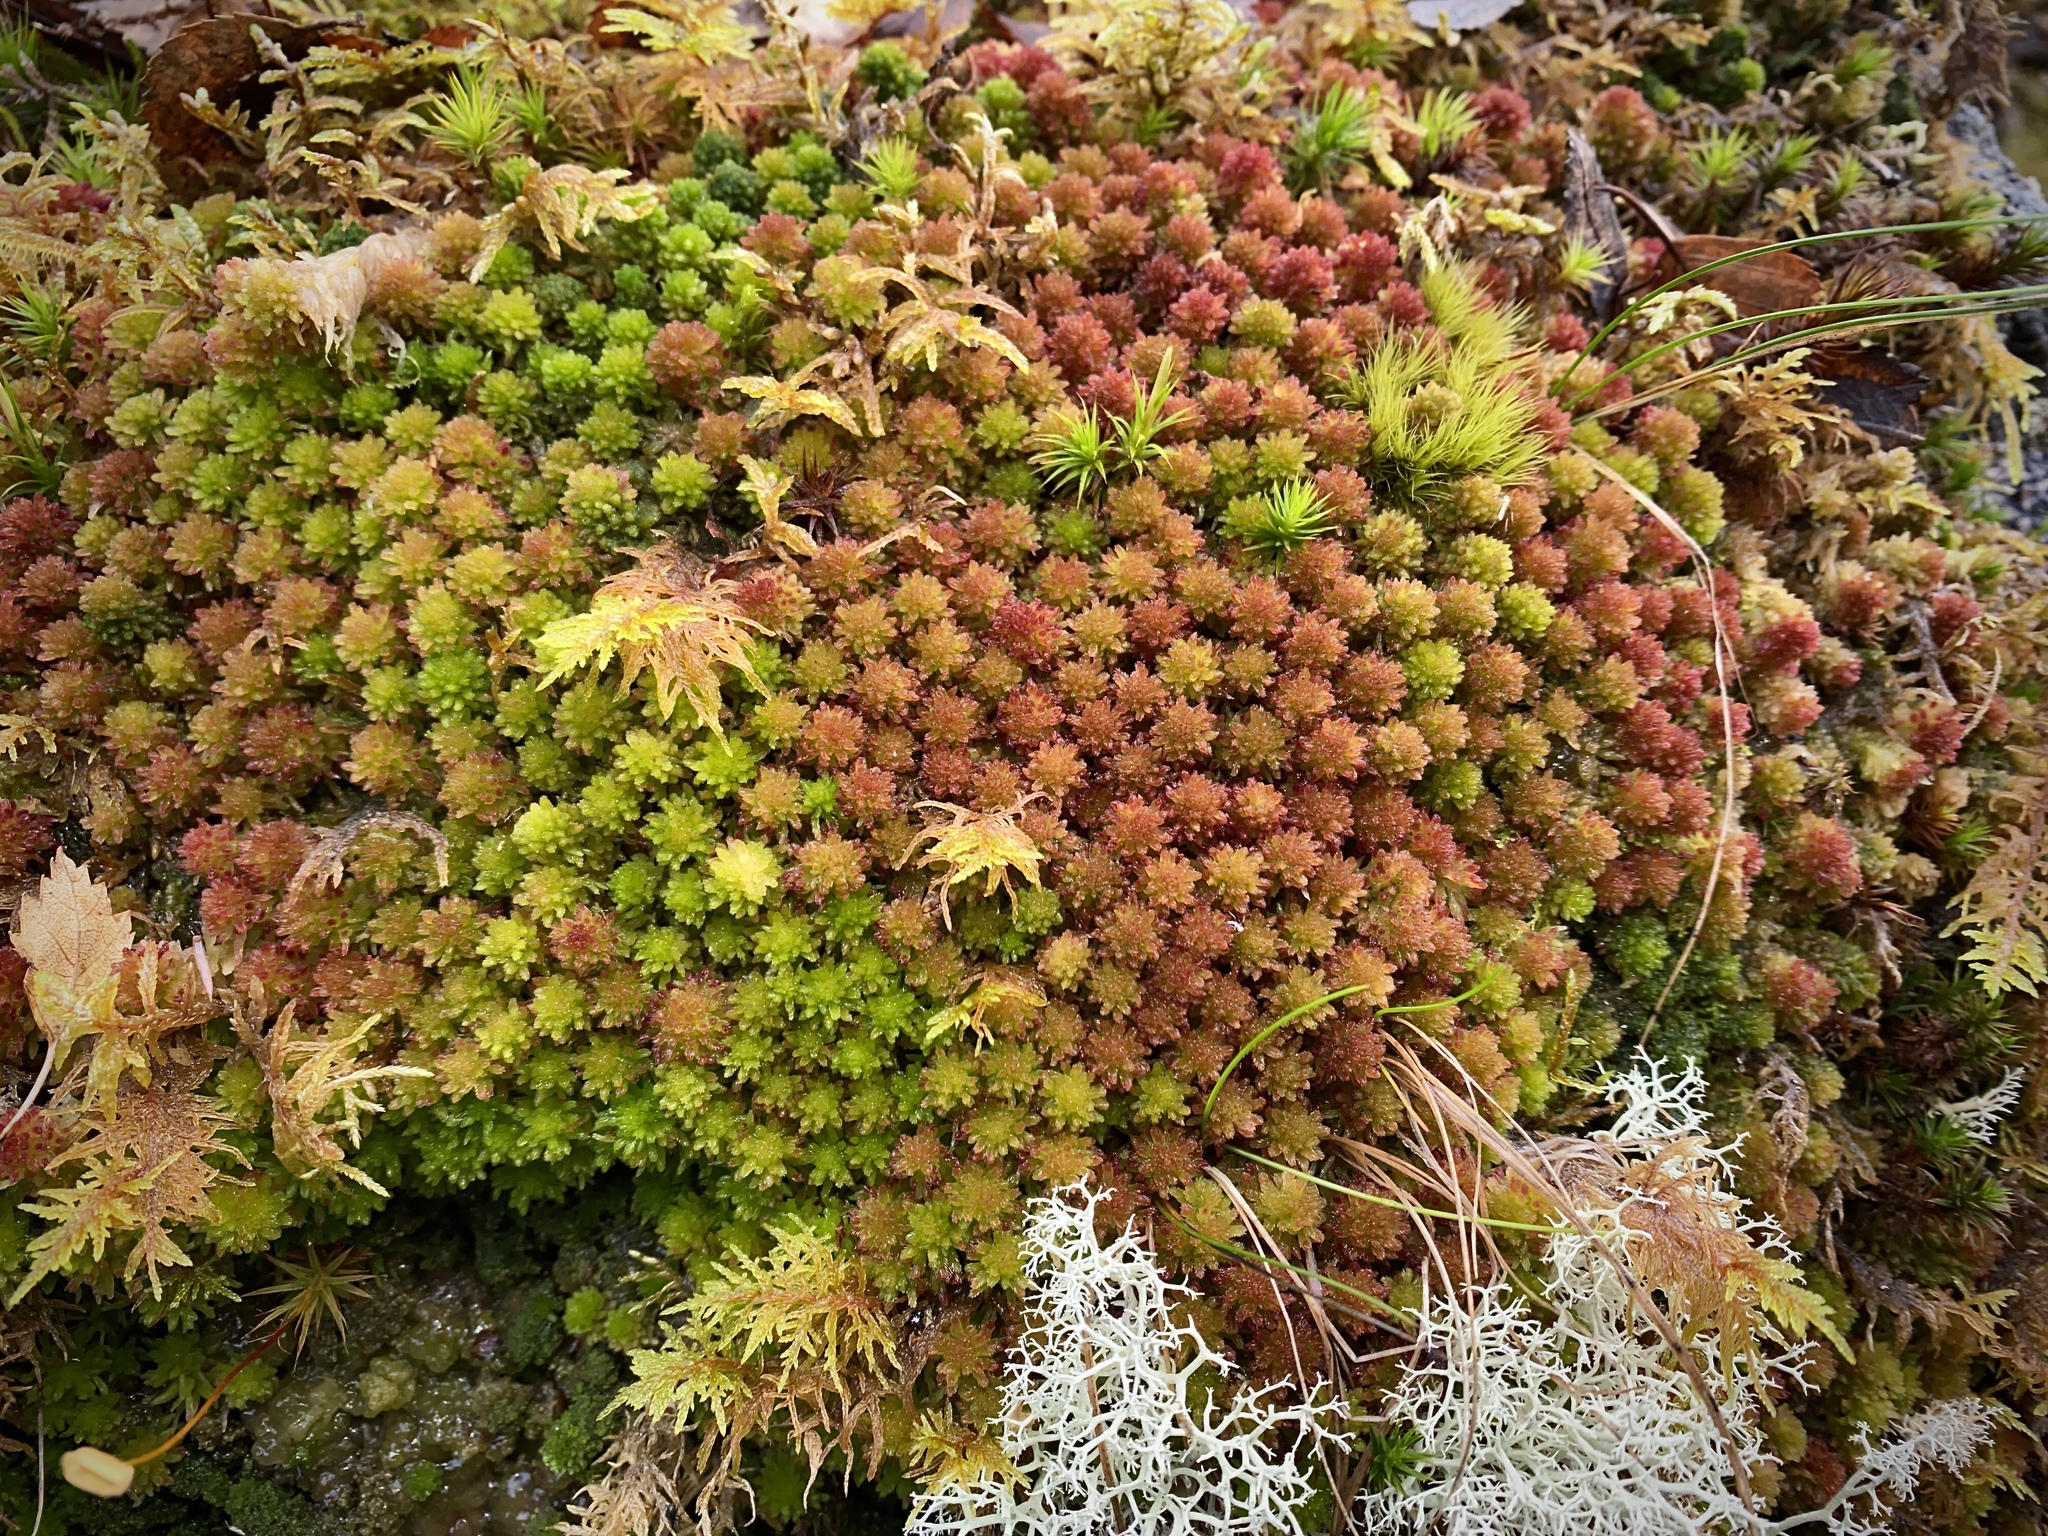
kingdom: Plantae
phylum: Bryophyta
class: Sphagnopsida
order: Sphagnales
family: Sphagnaceae
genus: Sphagnum
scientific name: Sphagnum capillifolium
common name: Small red peat moss
